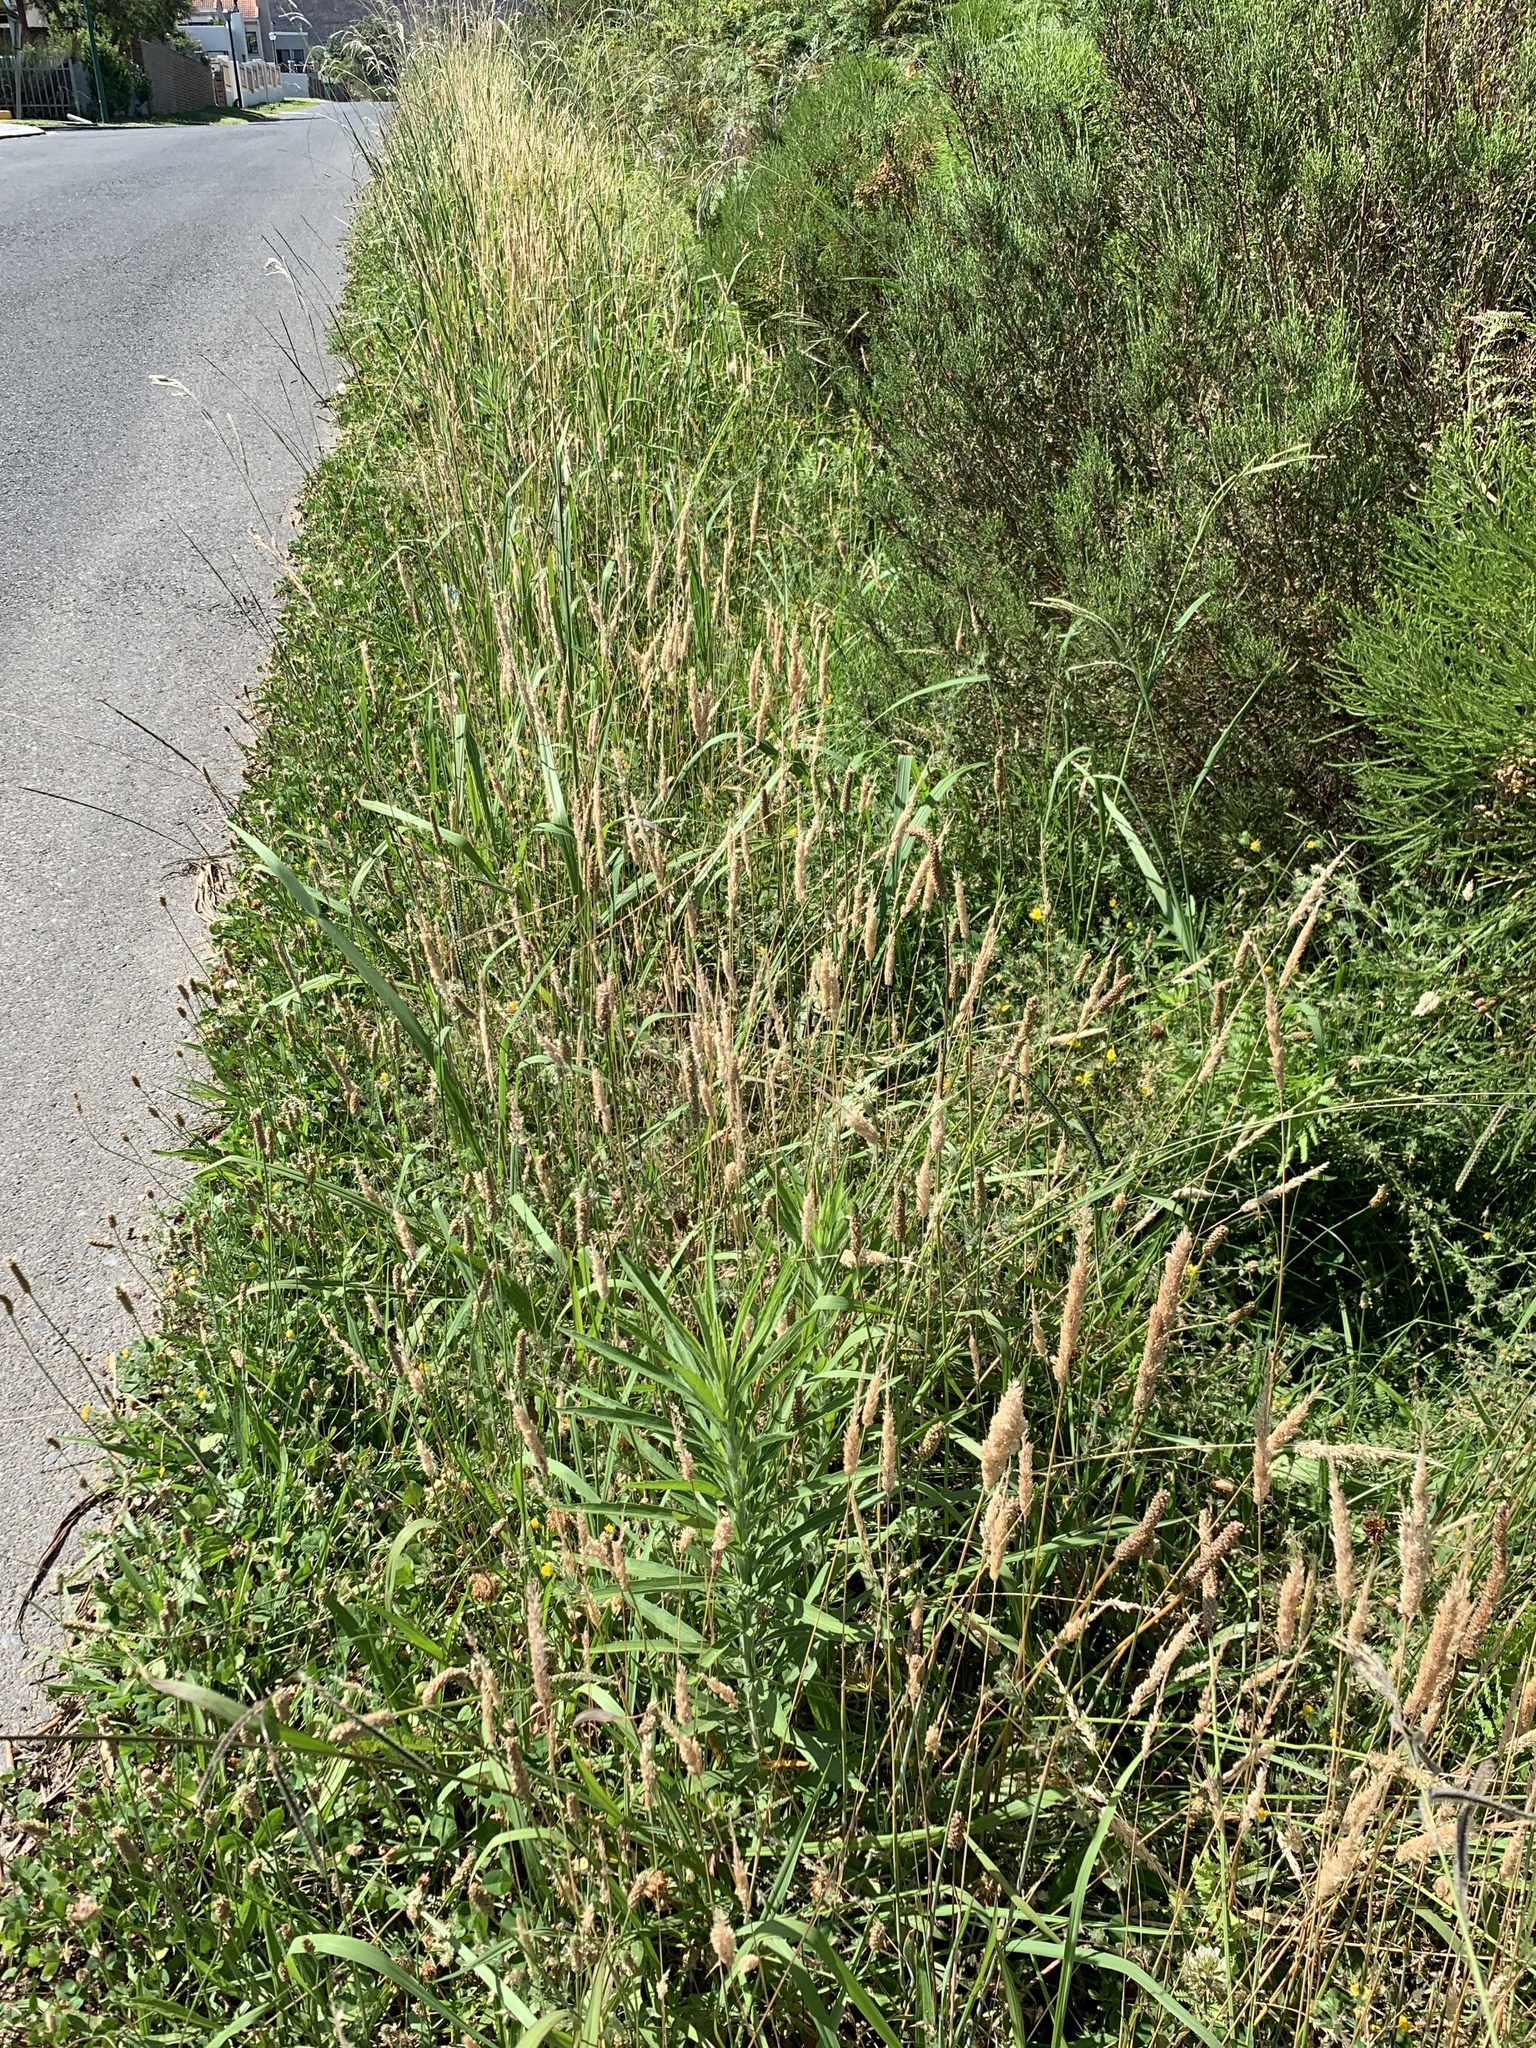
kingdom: Plantae
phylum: Tracheophyta
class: Liliopsida
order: Poales
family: Poaceae
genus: Holcus
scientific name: Holcus lanatus
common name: Yorkshire-fog
